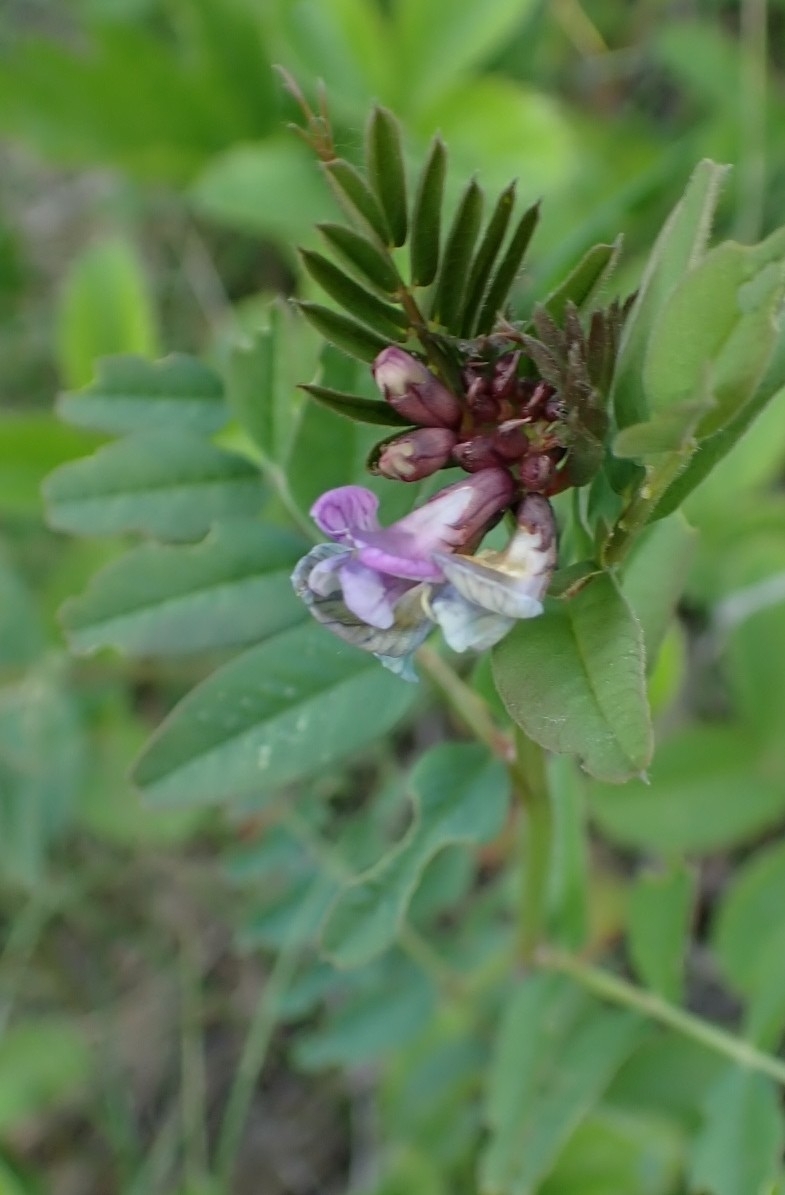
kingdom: Plantae
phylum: Tracheophyta
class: Magnoliopsida
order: Fabales
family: Fabaceae
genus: Vicia
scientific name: Vicia sepium
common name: Bush vetch
